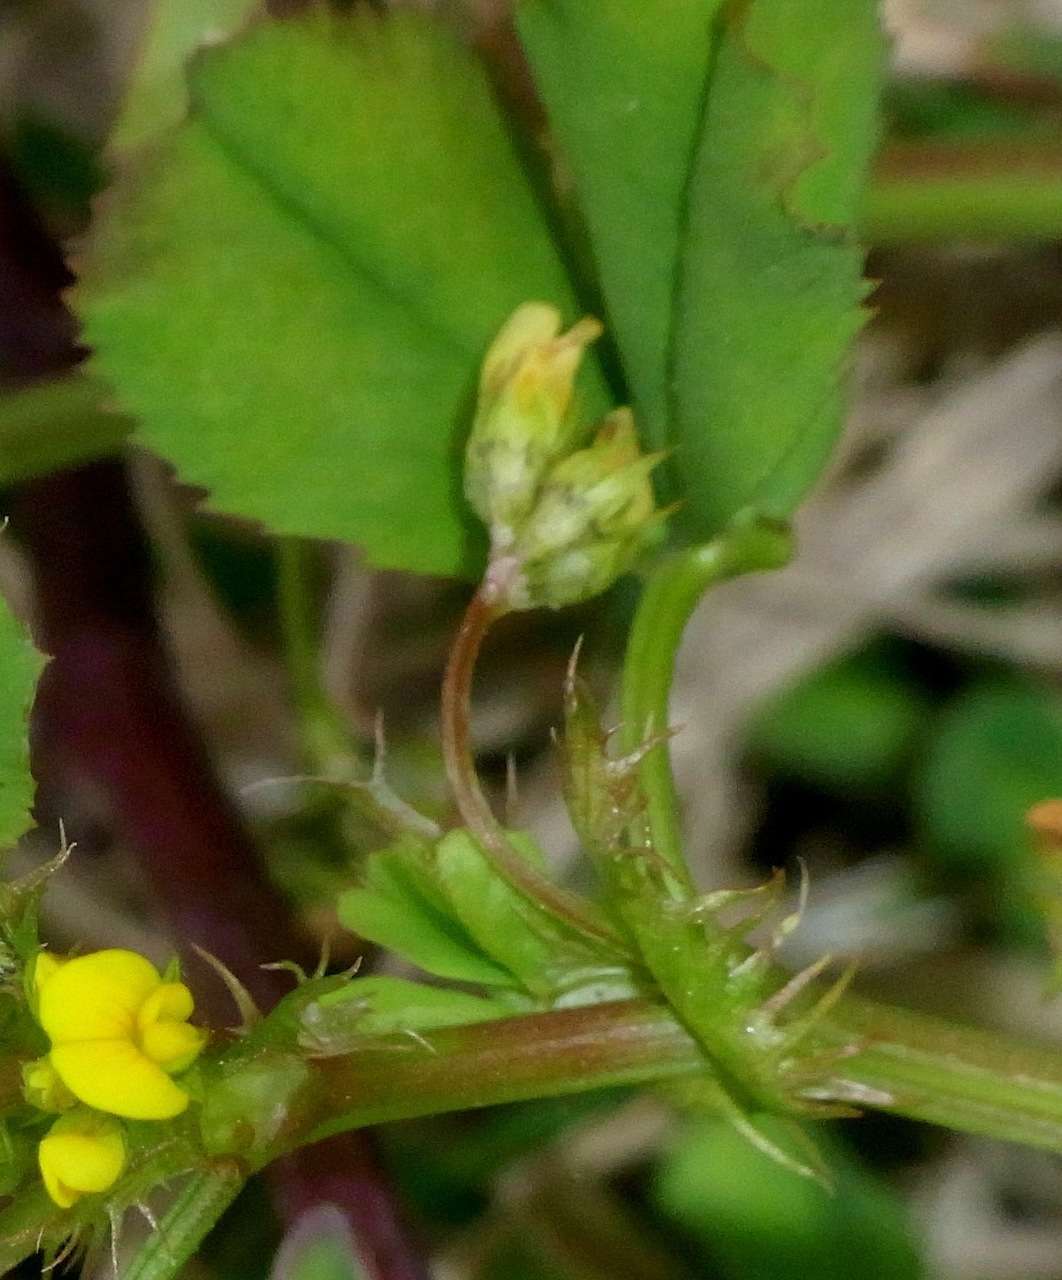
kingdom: Plantae
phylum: Tracheophyta
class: Magnoliopsida
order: Fabales
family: Fabaceae
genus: Medicago
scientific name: Medicago polymorpha
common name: Burclover
